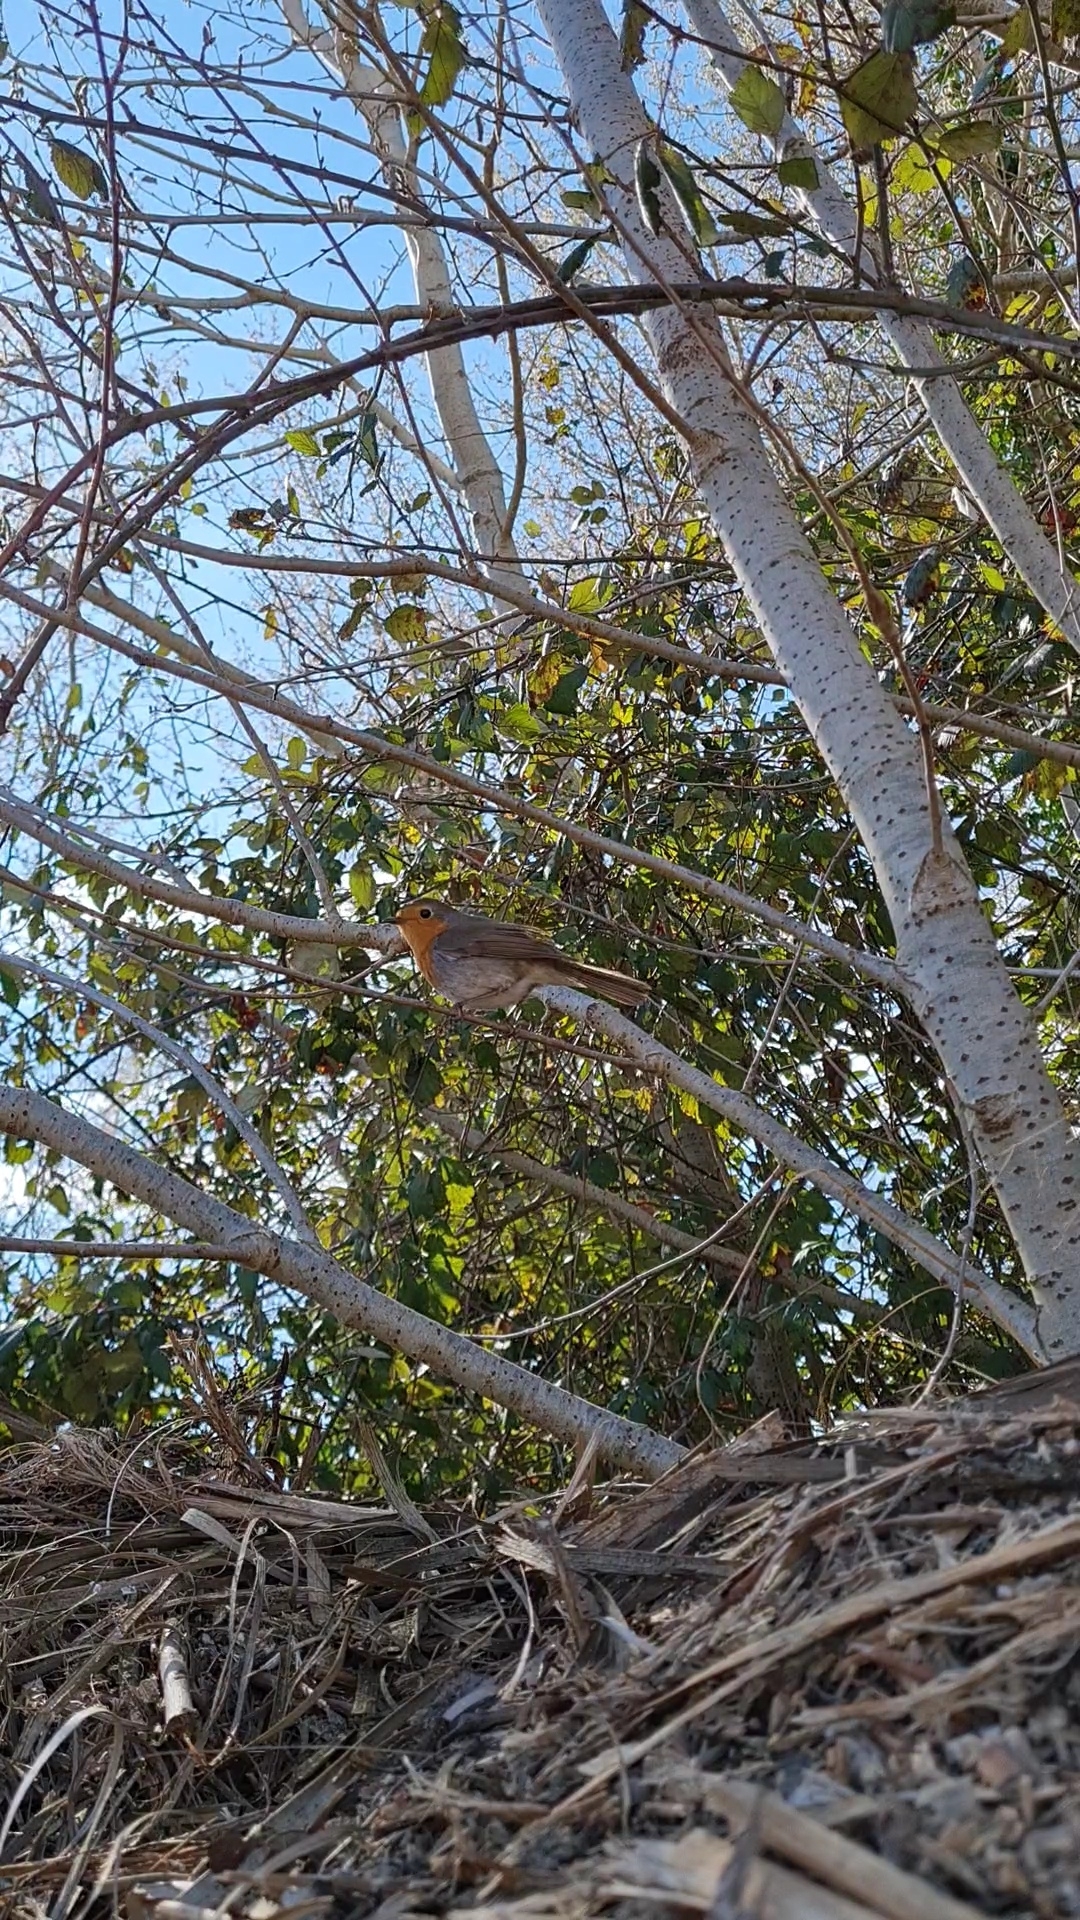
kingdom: Animalia
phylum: Chordata
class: Aves
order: Passeriformes
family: Muscicapidae
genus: Erithacus
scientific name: Erithacus rubecula
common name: European robin
